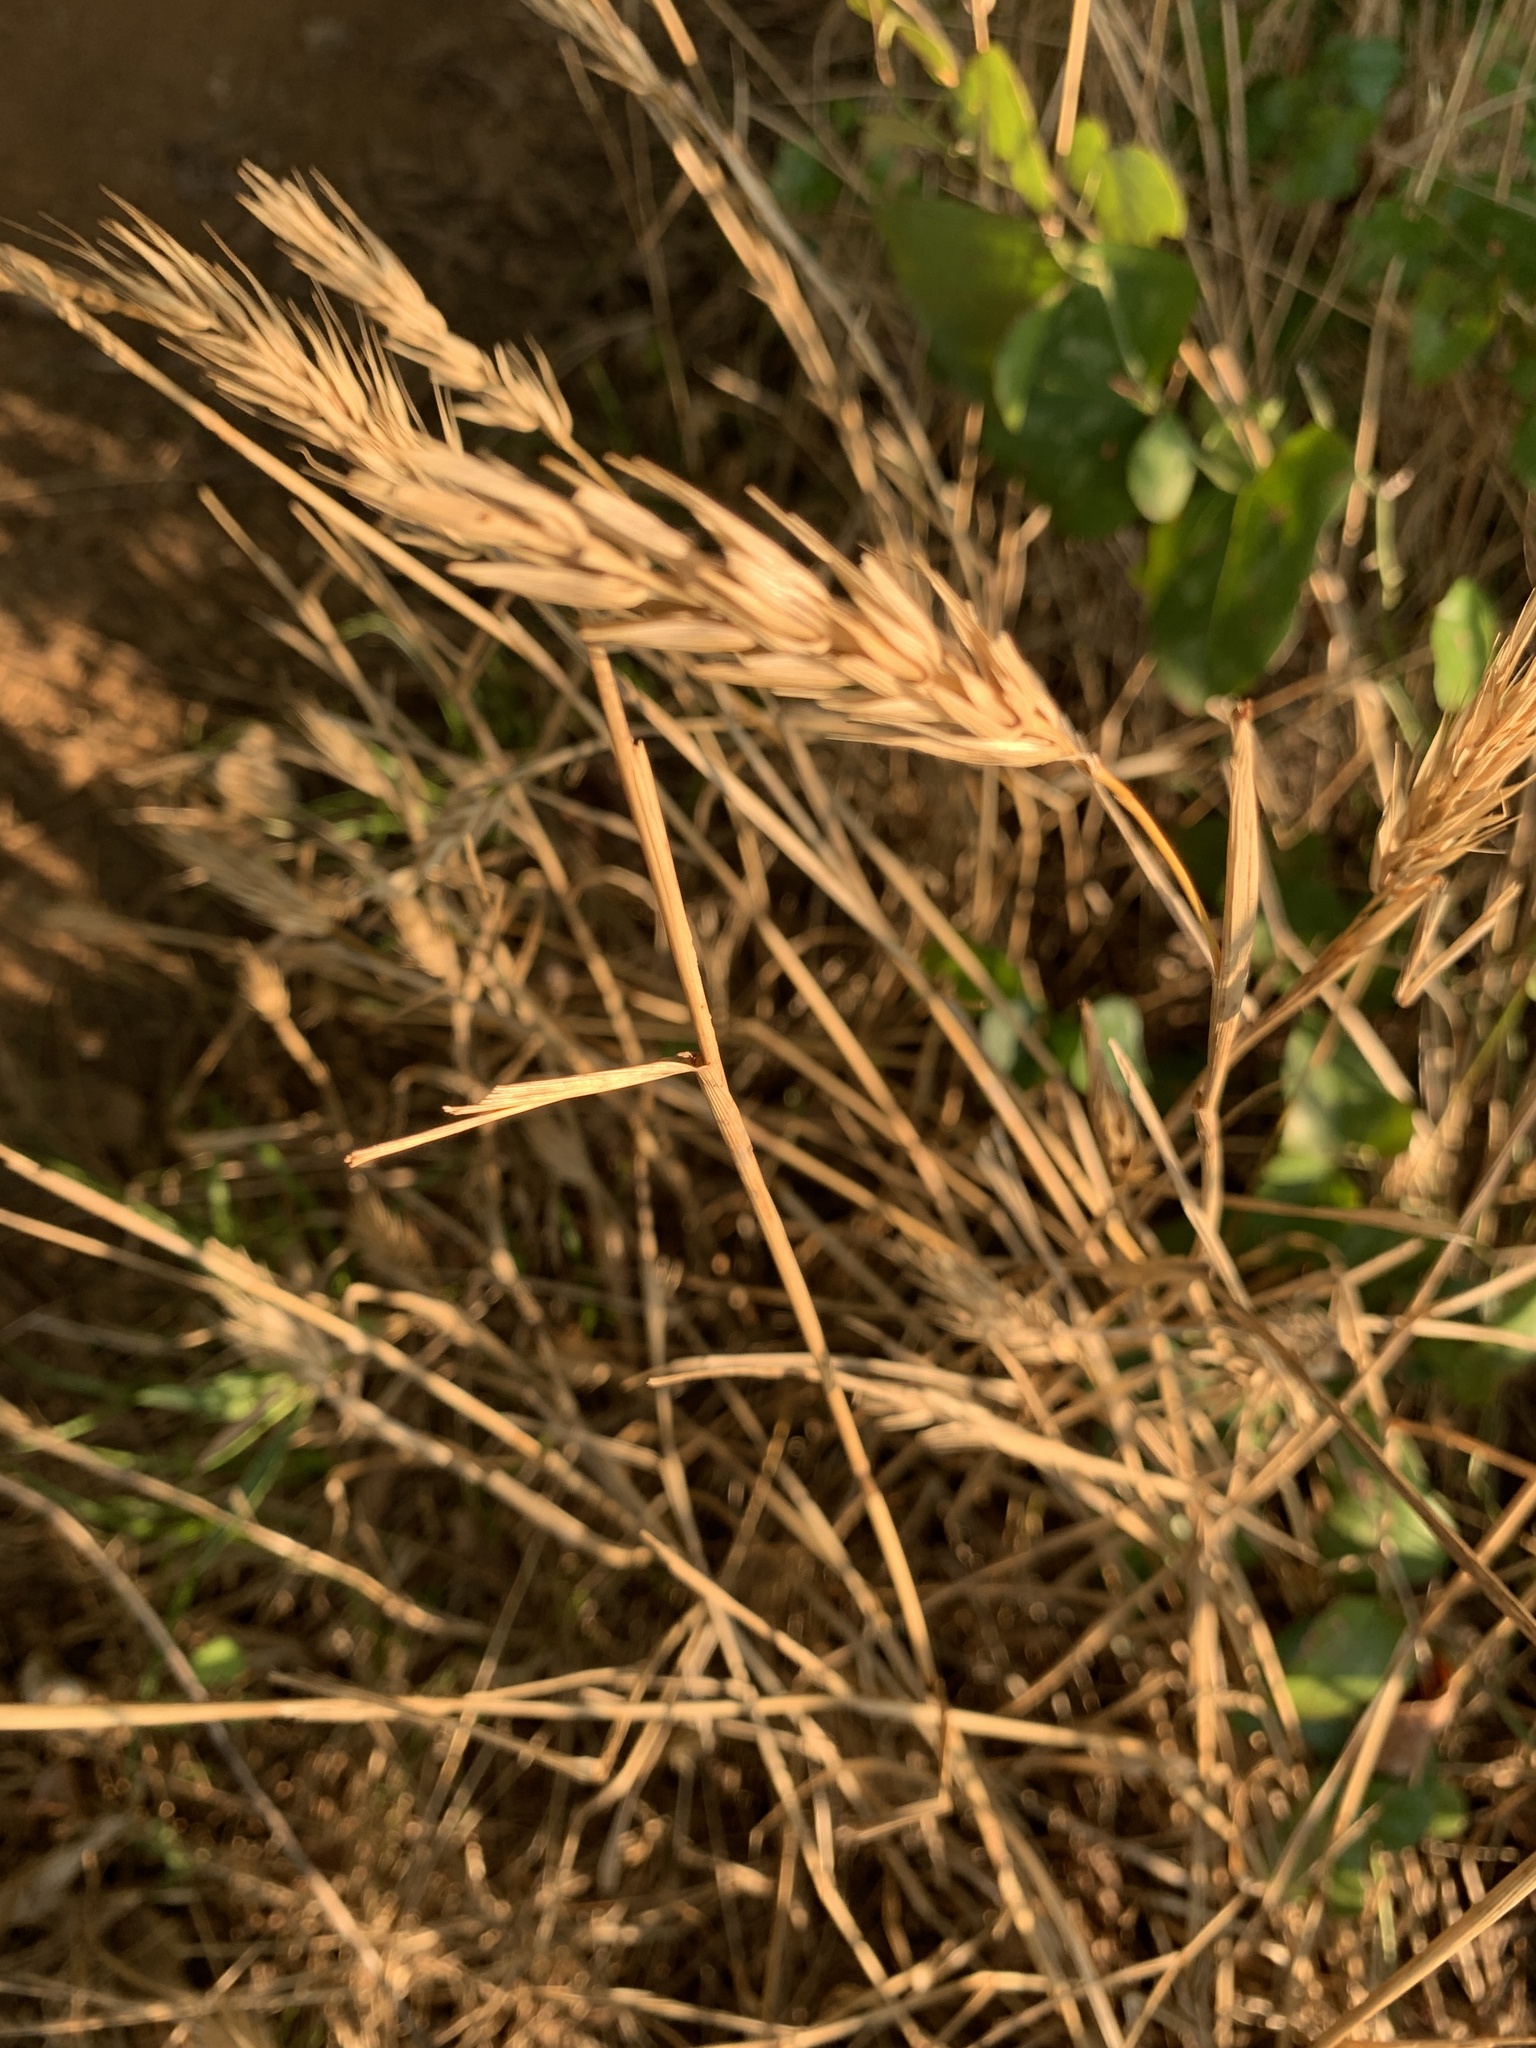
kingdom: Plantae
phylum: Tracheophyta
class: Liliopsida
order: Poales
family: Poaceae
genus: Elymus
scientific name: Elymus virginicus
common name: Common eastern wildrye
